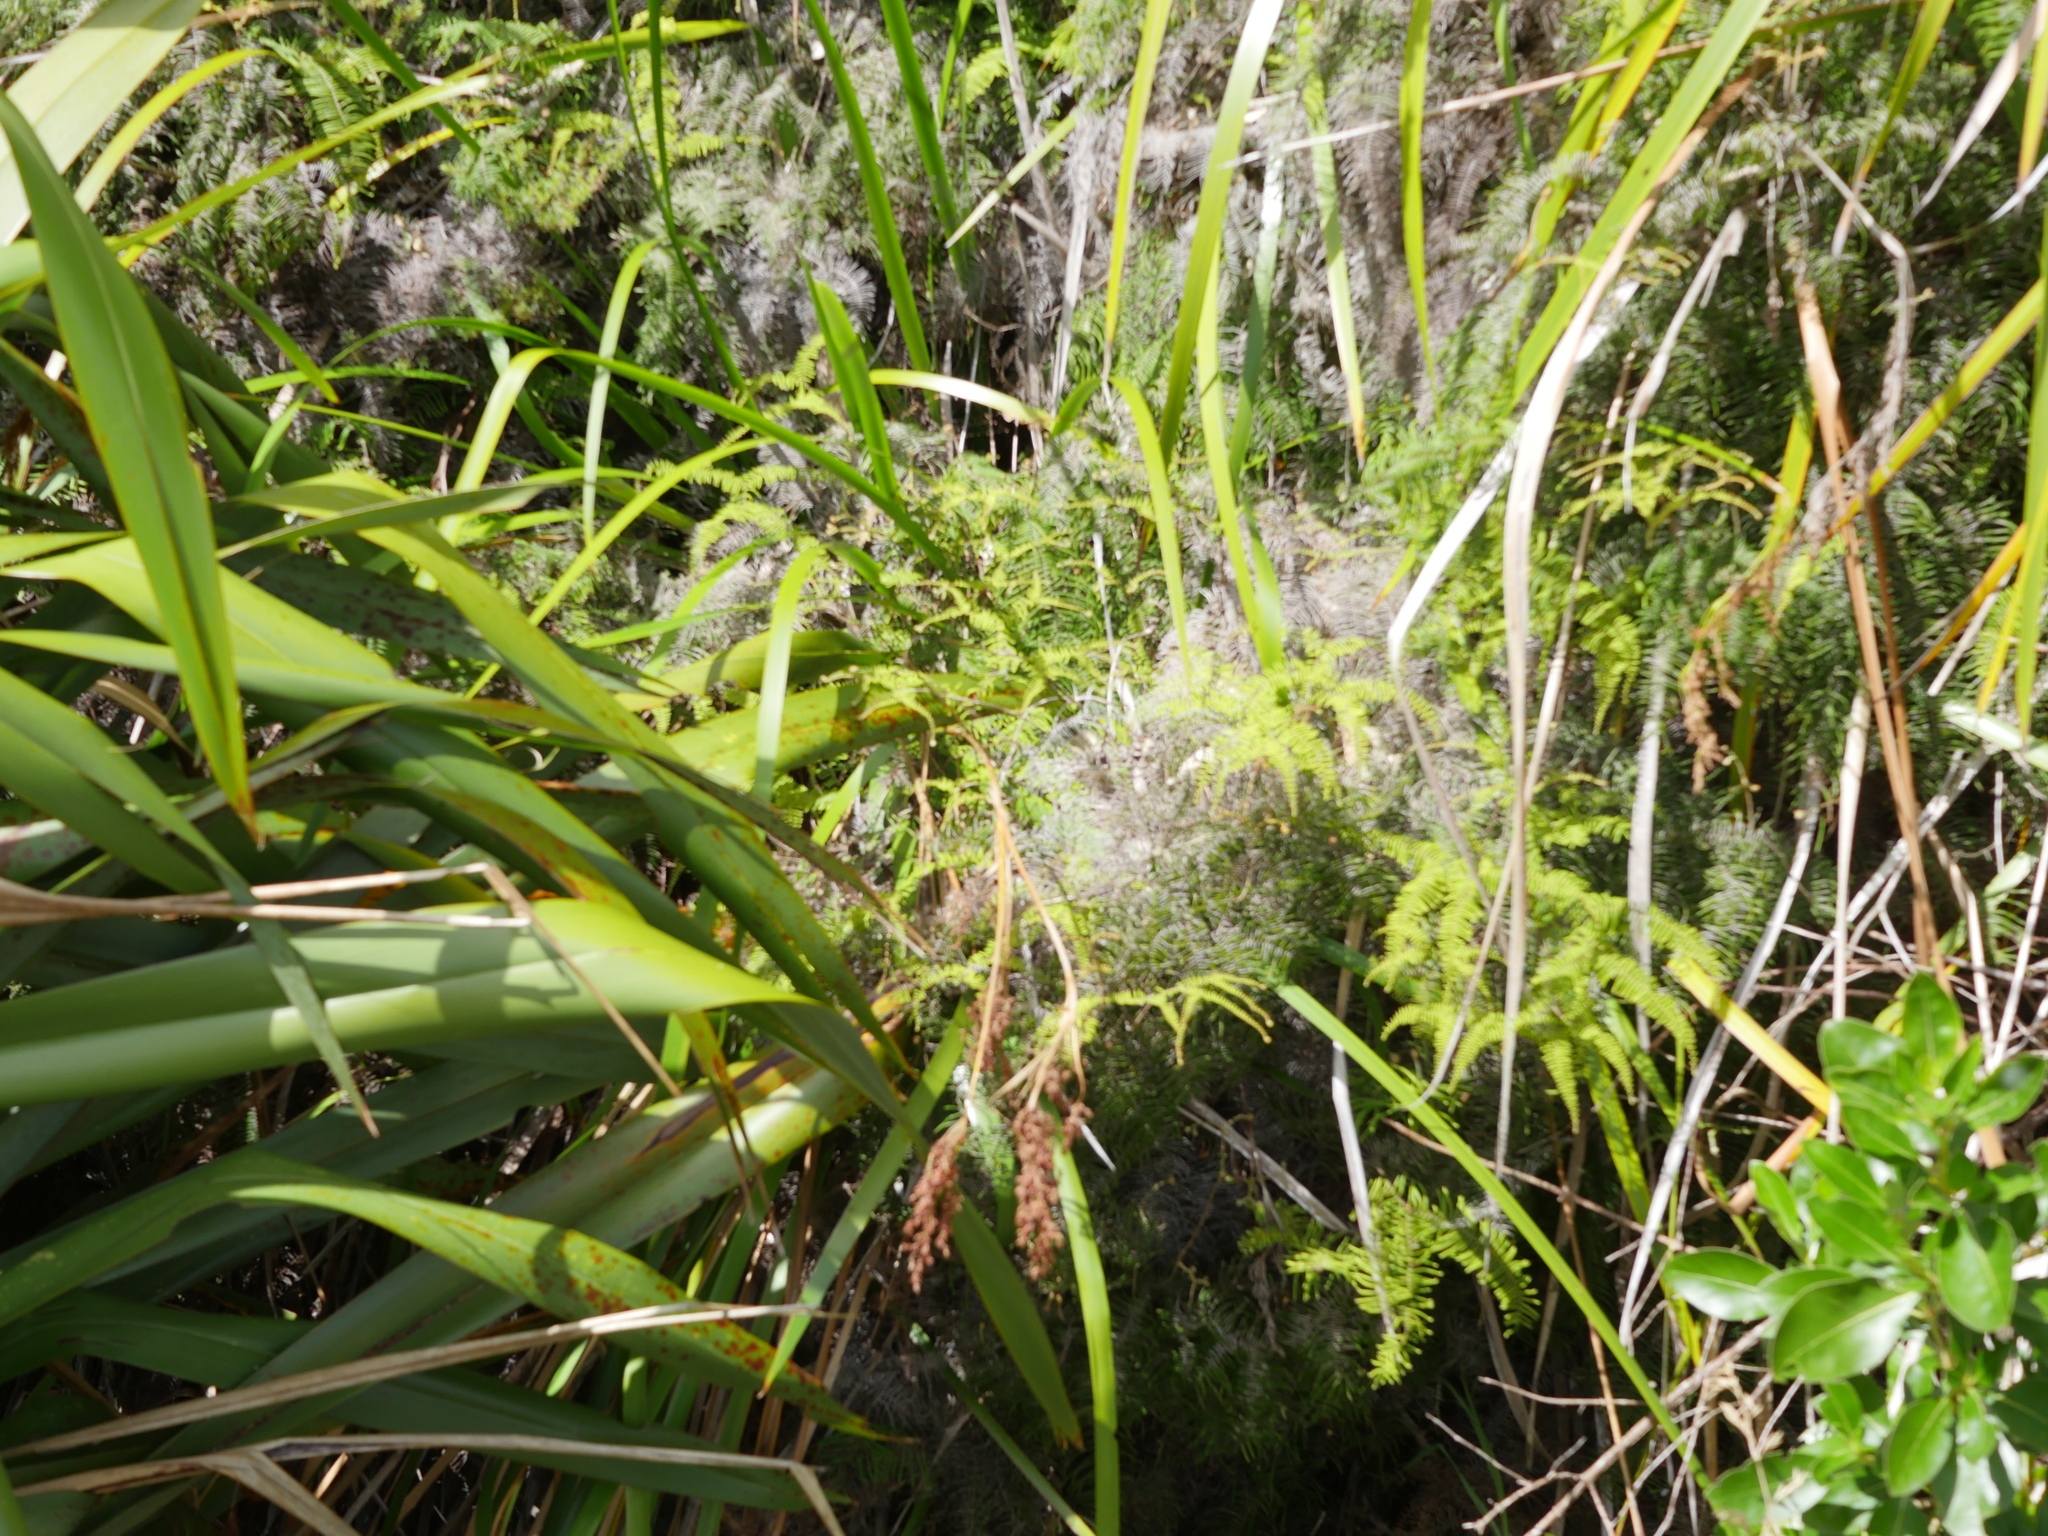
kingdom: Plantae
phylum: Tracheophyta
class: Liliopsida
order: Poales
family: Cyperaceae
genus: Machaerina
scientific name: Machaerina sinclairii
